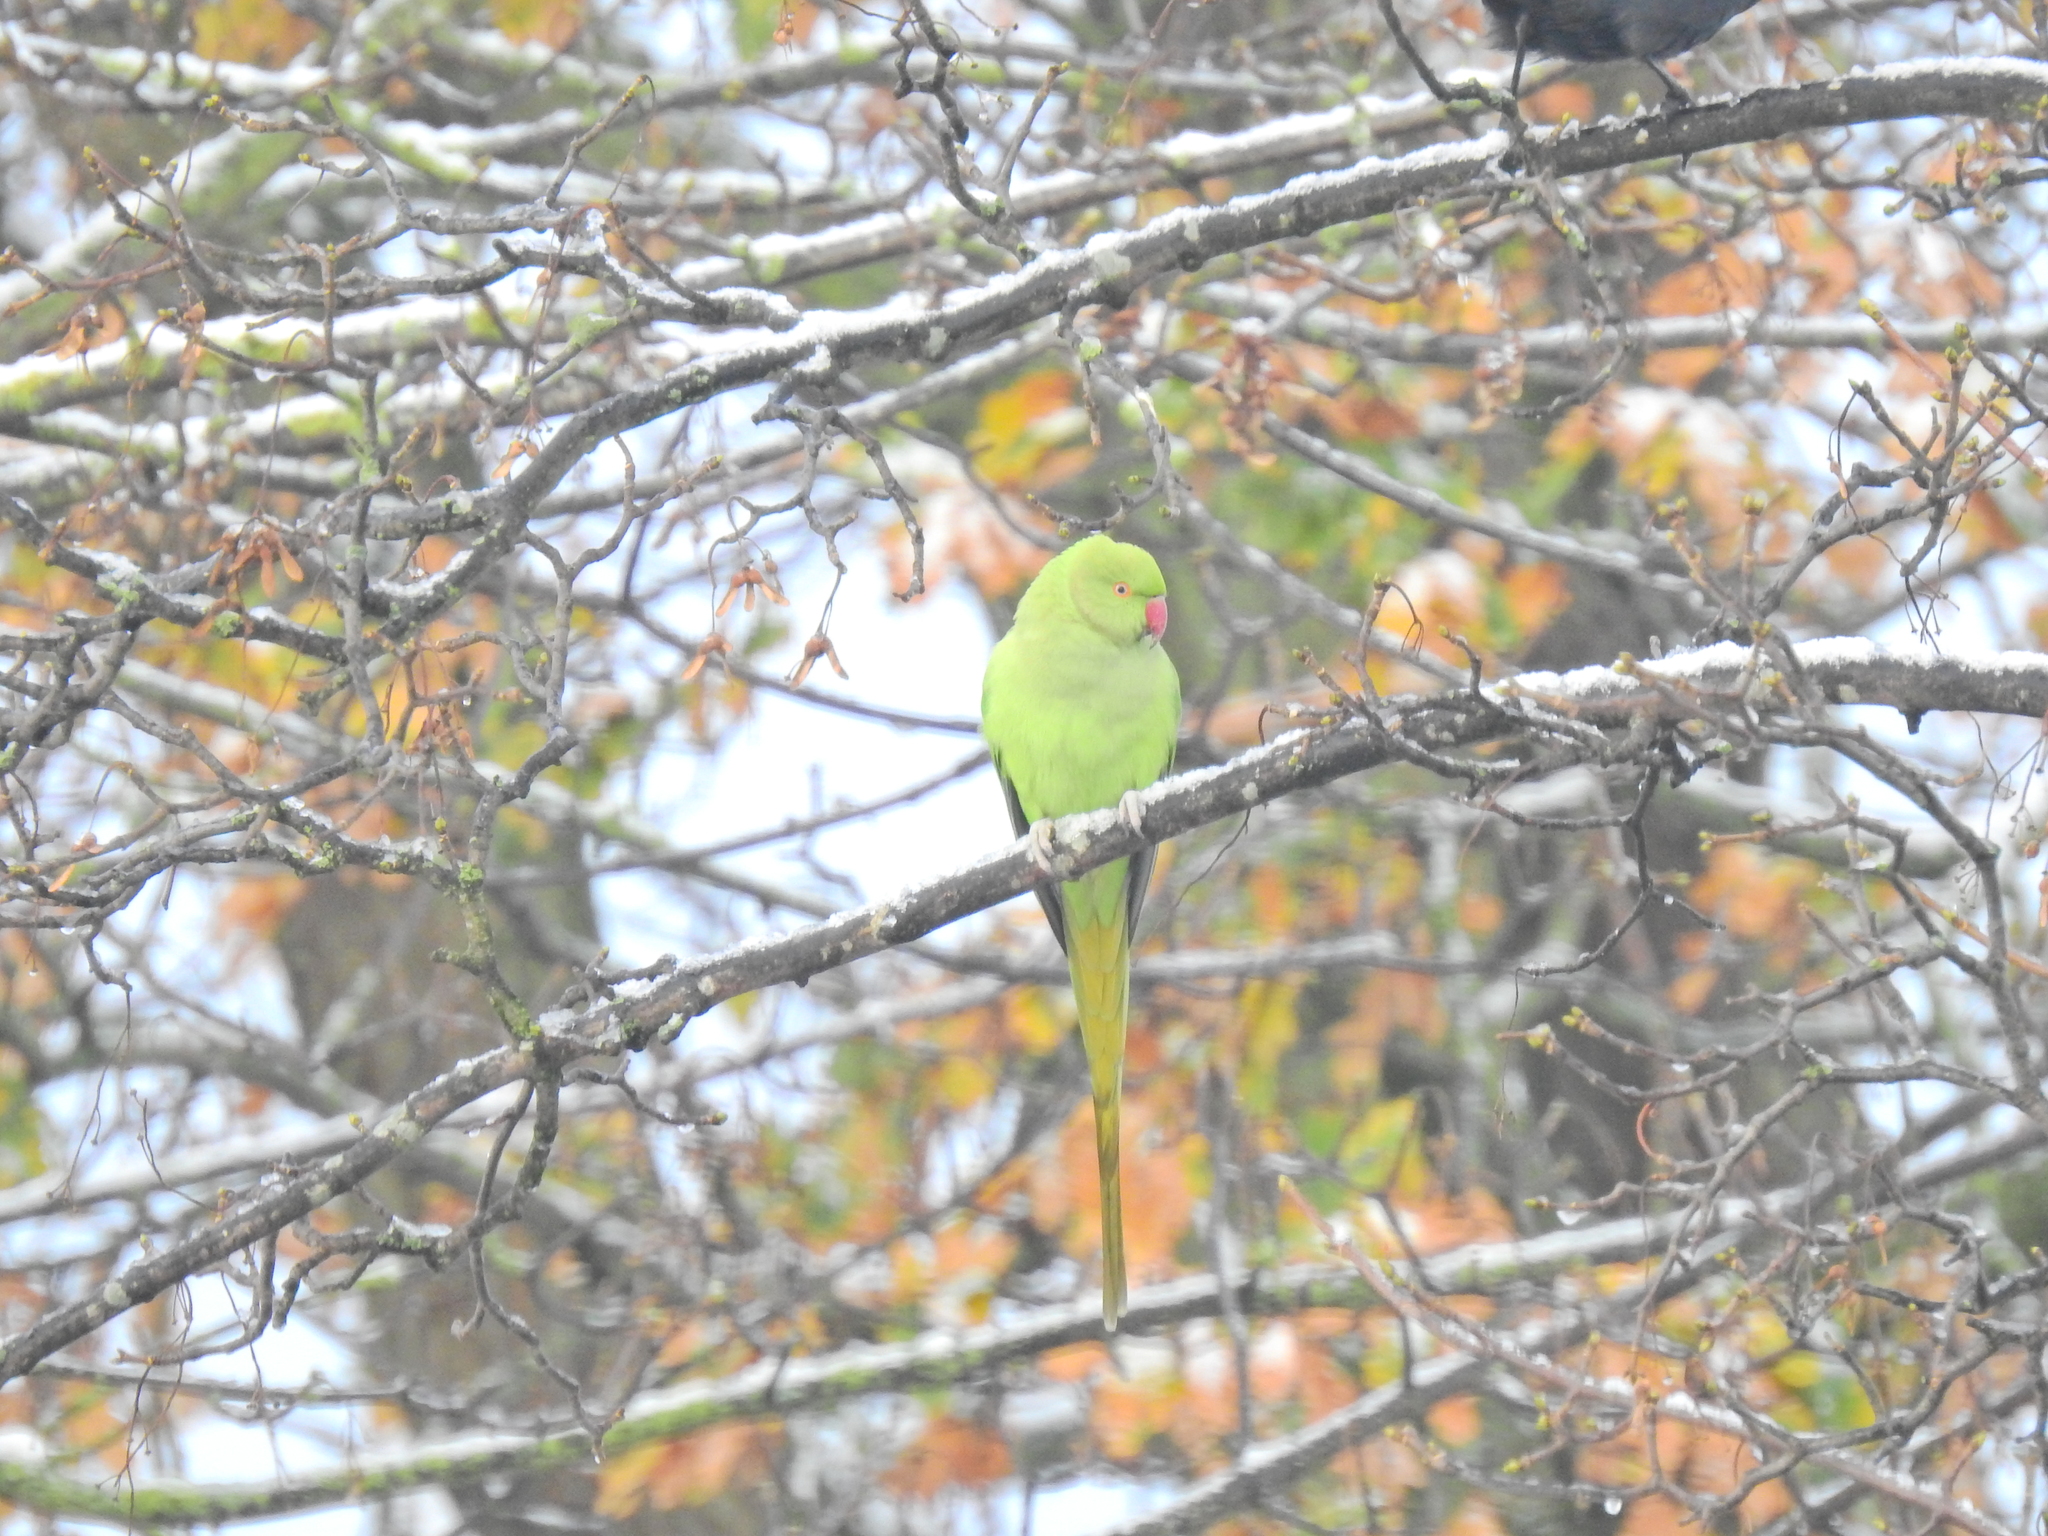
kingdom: Animalia
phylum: Chordata
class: Aves
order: Psittaciformes
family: Psittacidae
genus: Psittacula
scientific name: Psittacula krameri
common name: Rose-ringed parakeet
